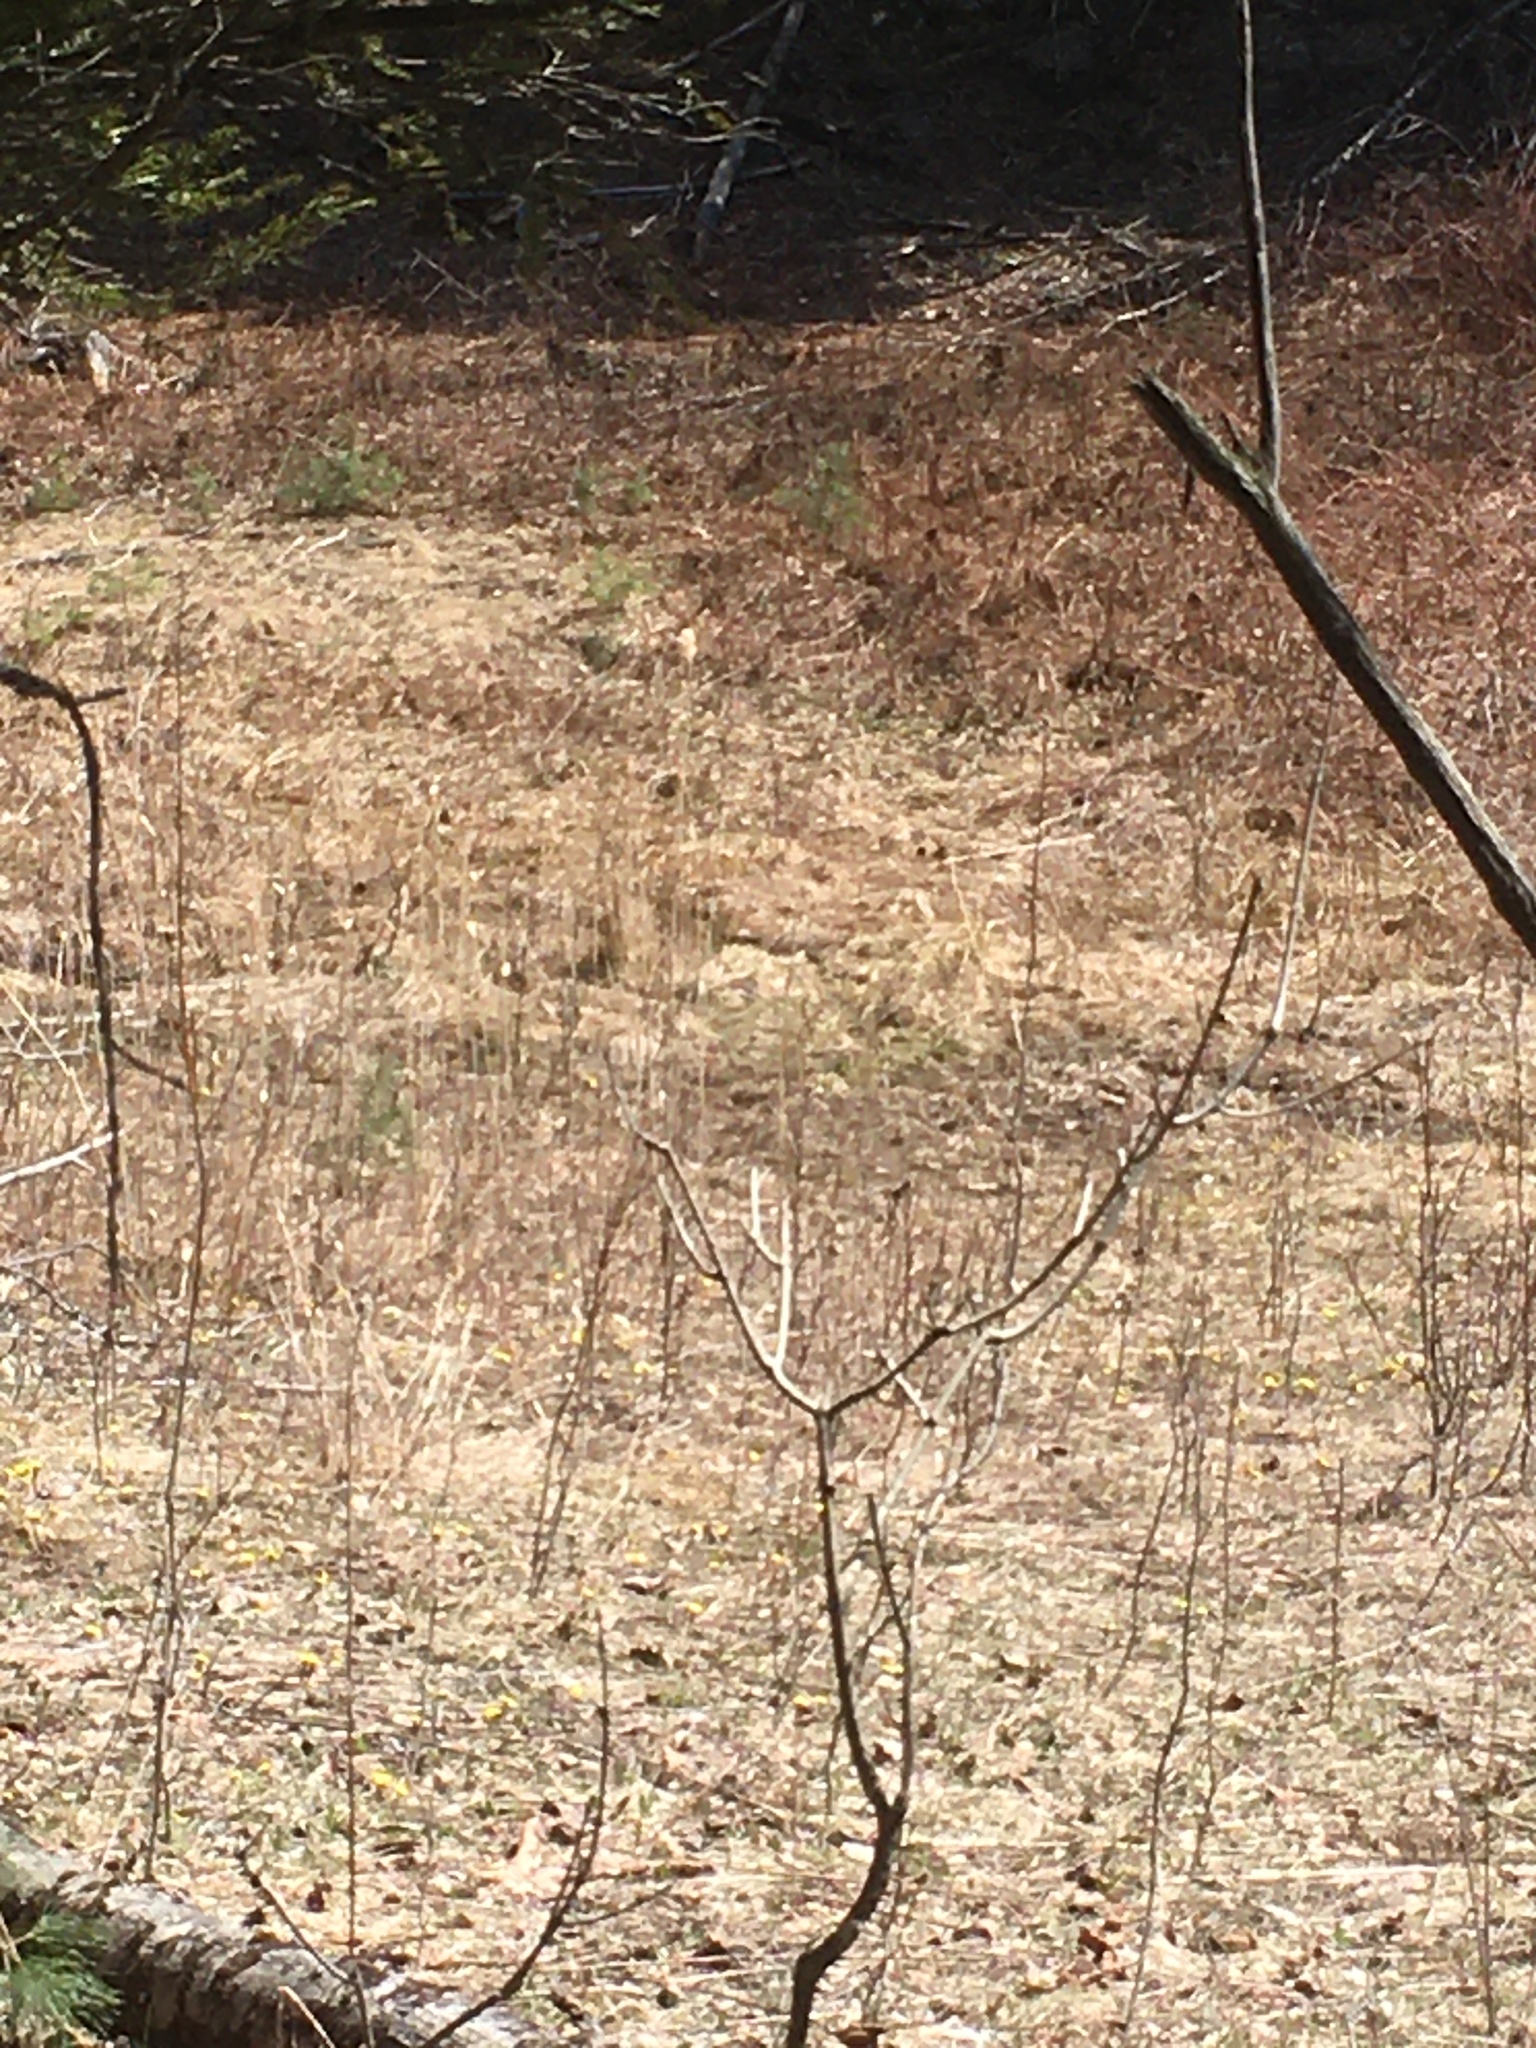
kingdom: Plantae
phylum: Tracheophyta
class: Liliopsida
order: Poales
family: Poaceae
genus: Phragmites
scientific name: Phragmites australis
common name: Common reed
